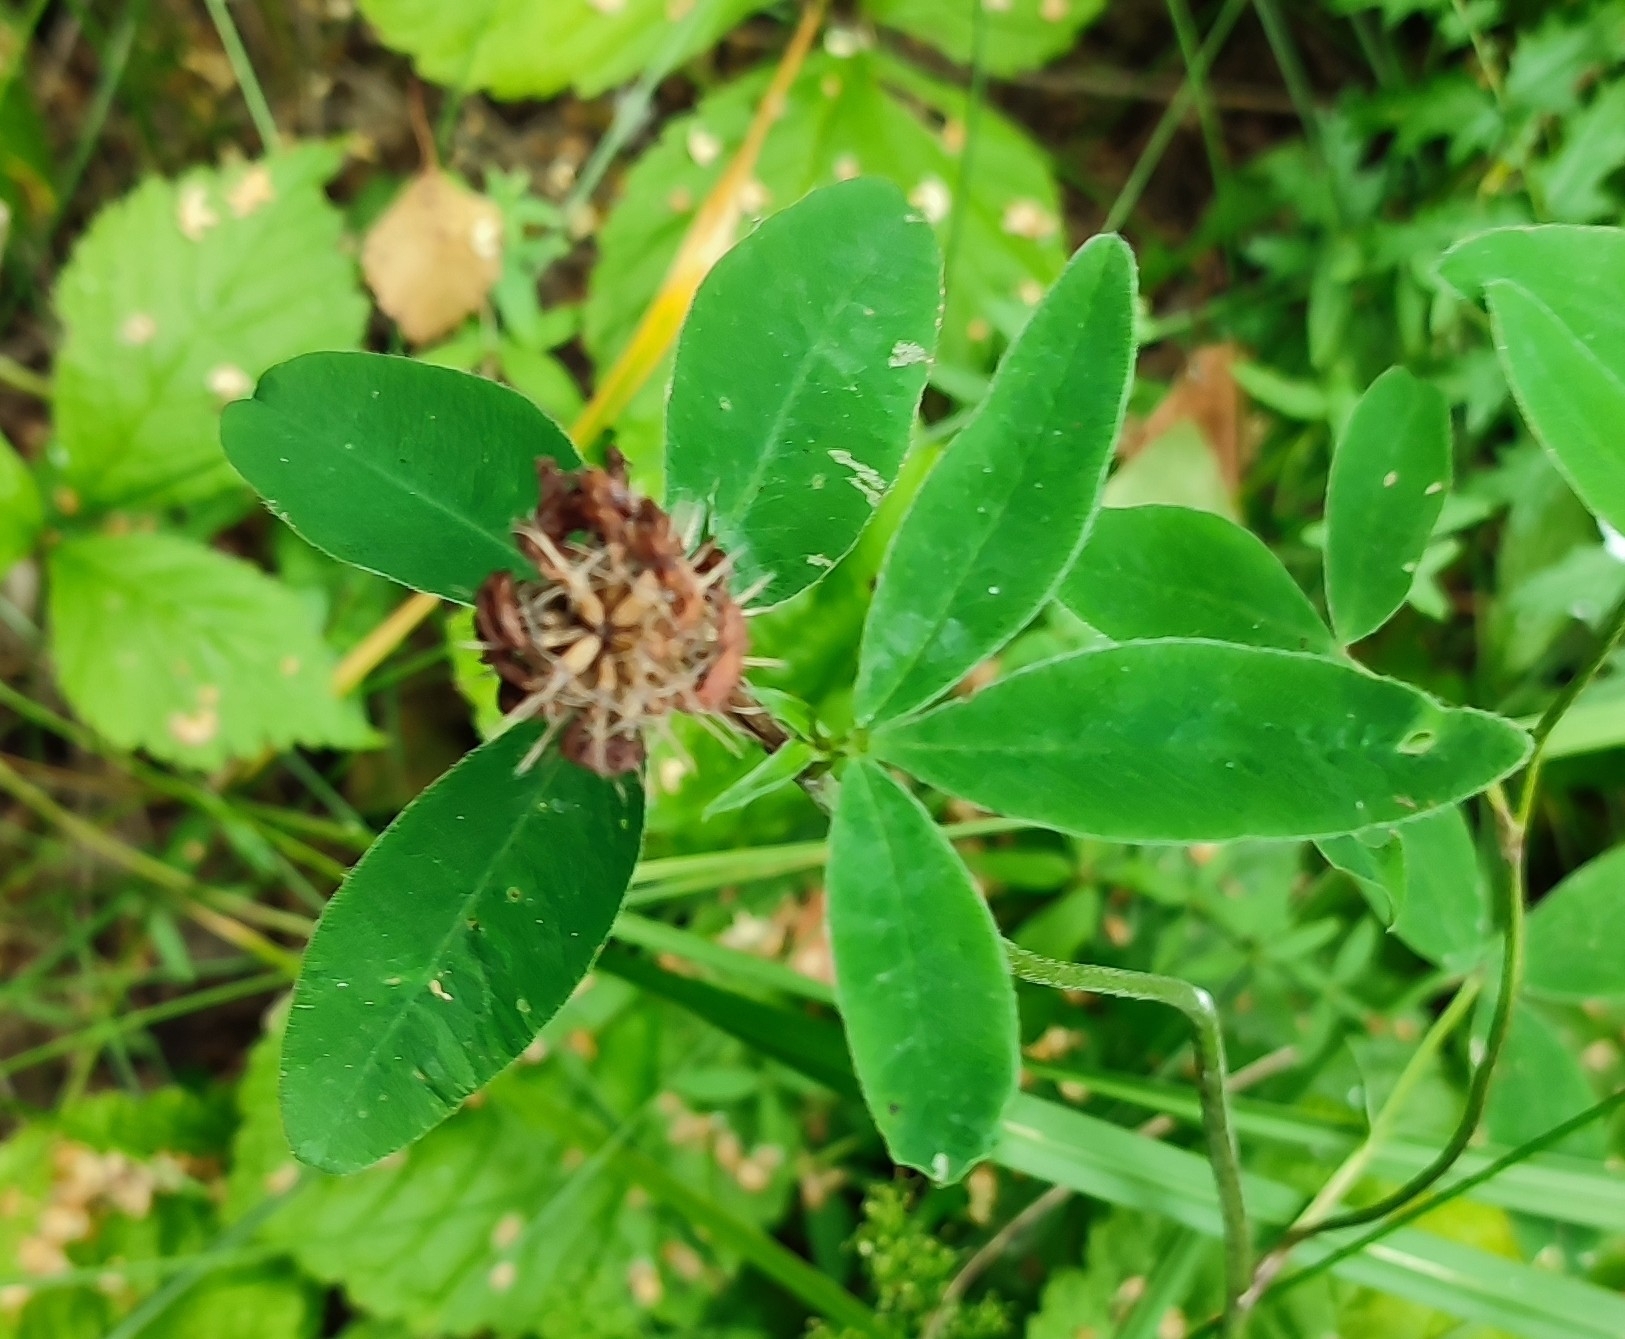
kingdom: Plantae
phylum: Tracheophyta
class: Magnoliopsida
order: Fabales
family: Fabaceae
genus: Trifolium
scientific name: Trifolium medium
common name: Zigzag clover
